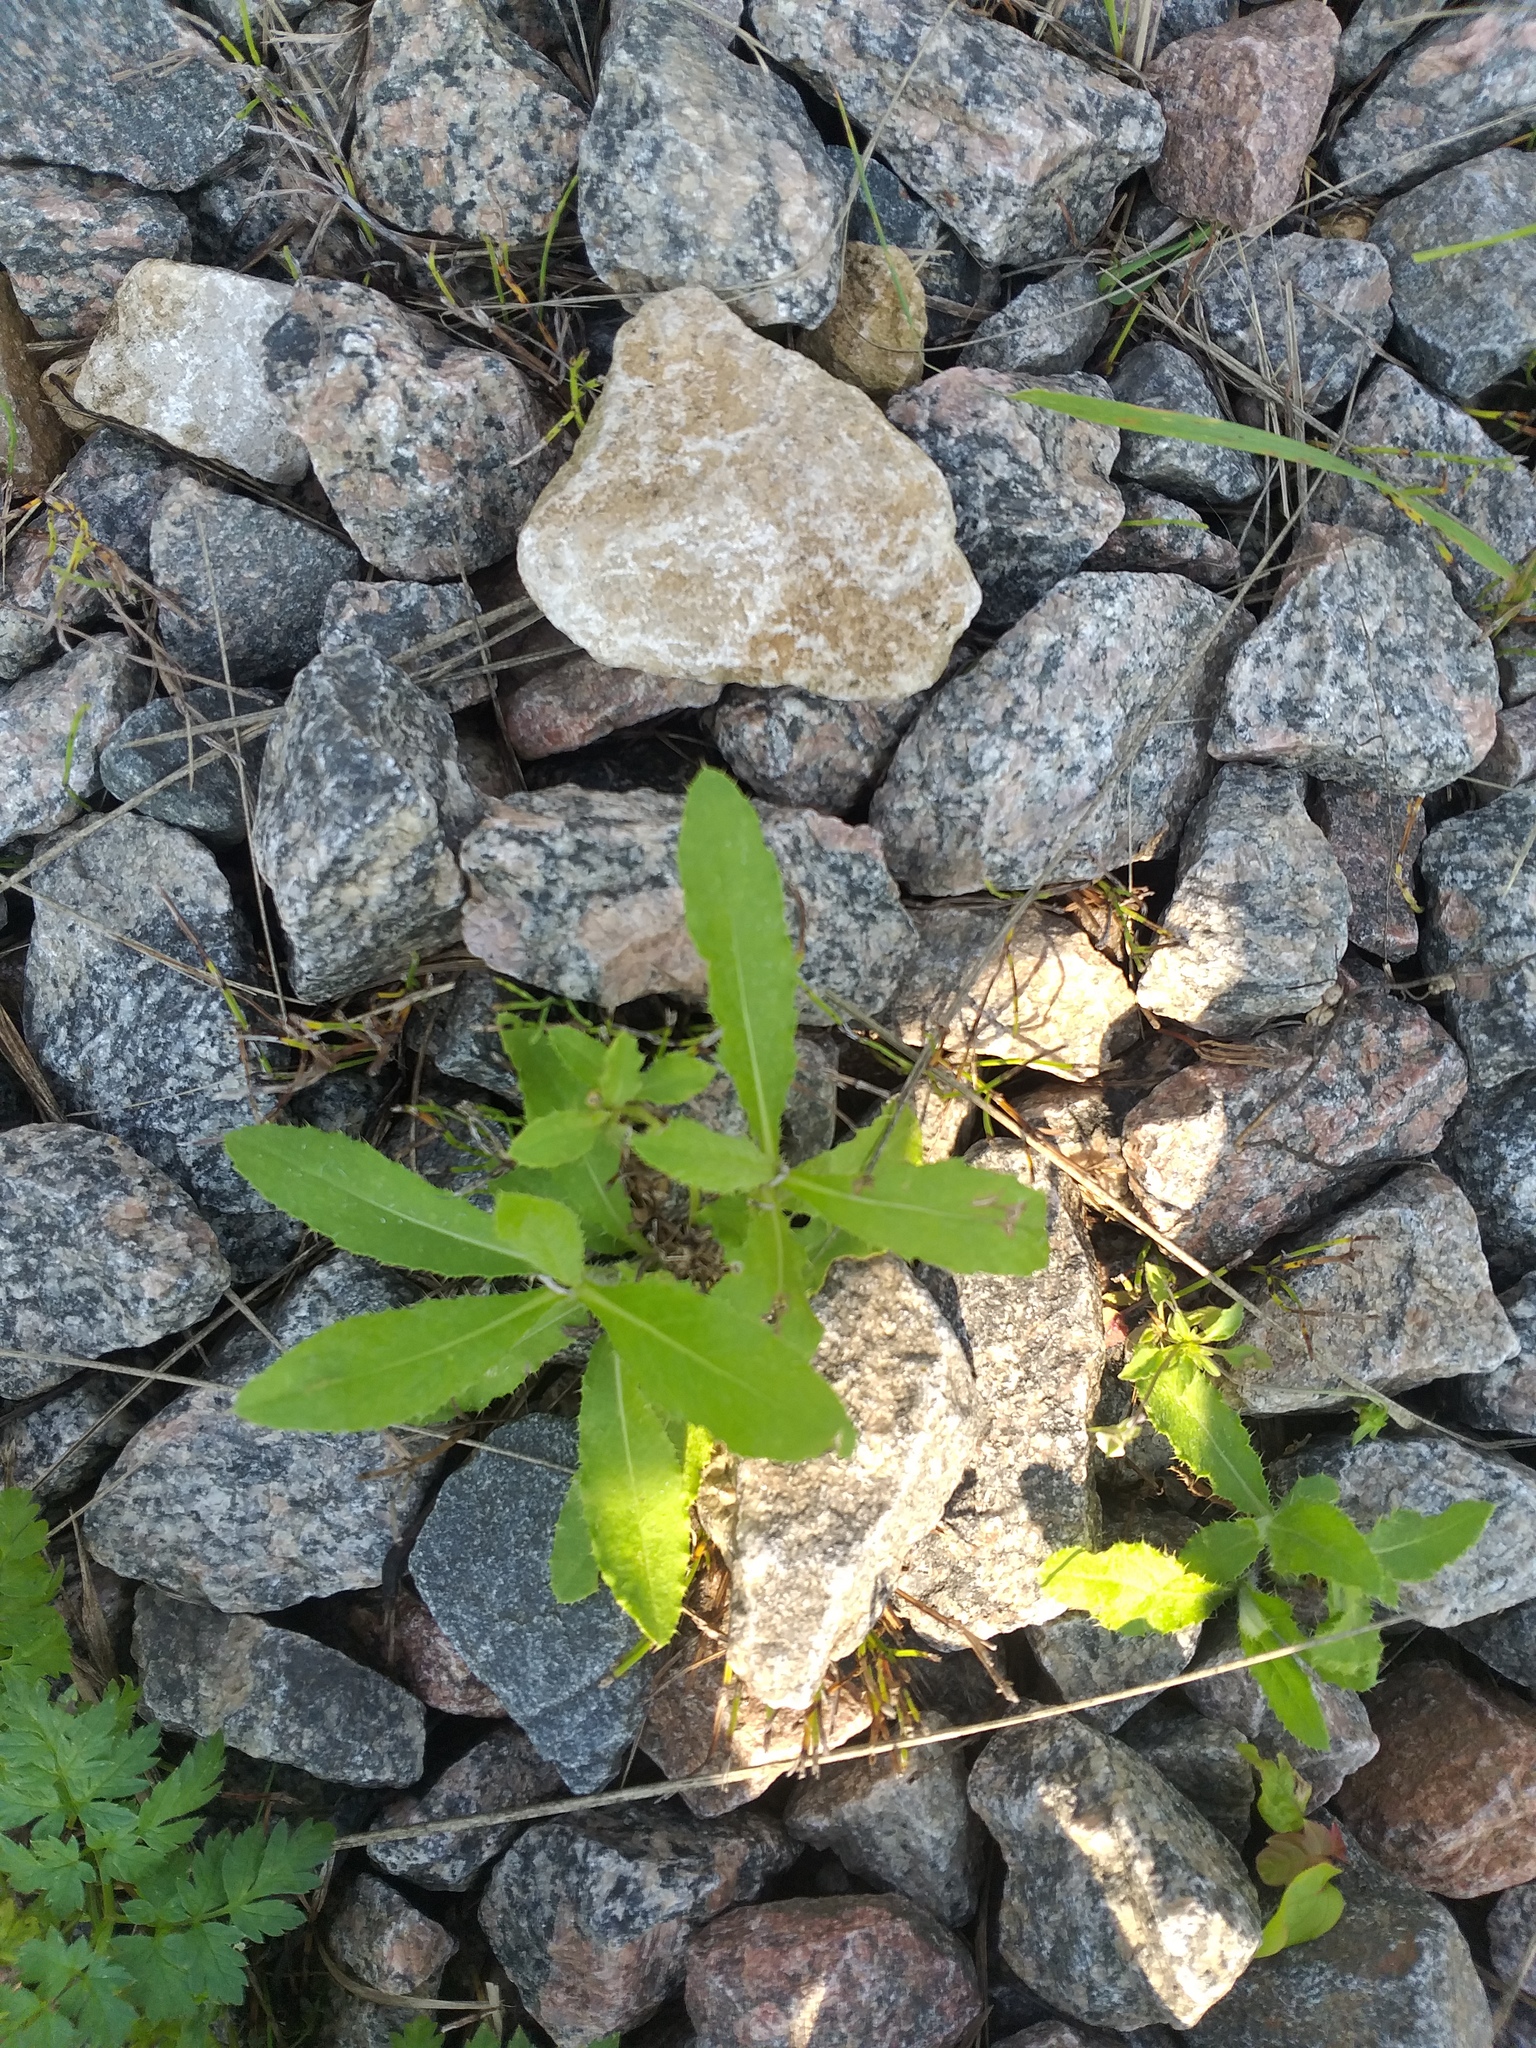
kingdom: Plantae
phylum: Tracheophyta
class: Magnoliopsida
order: Asterales
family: Asteraceae
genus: Cirsium
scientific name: Cirsium arvense
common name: Creeping thistle
